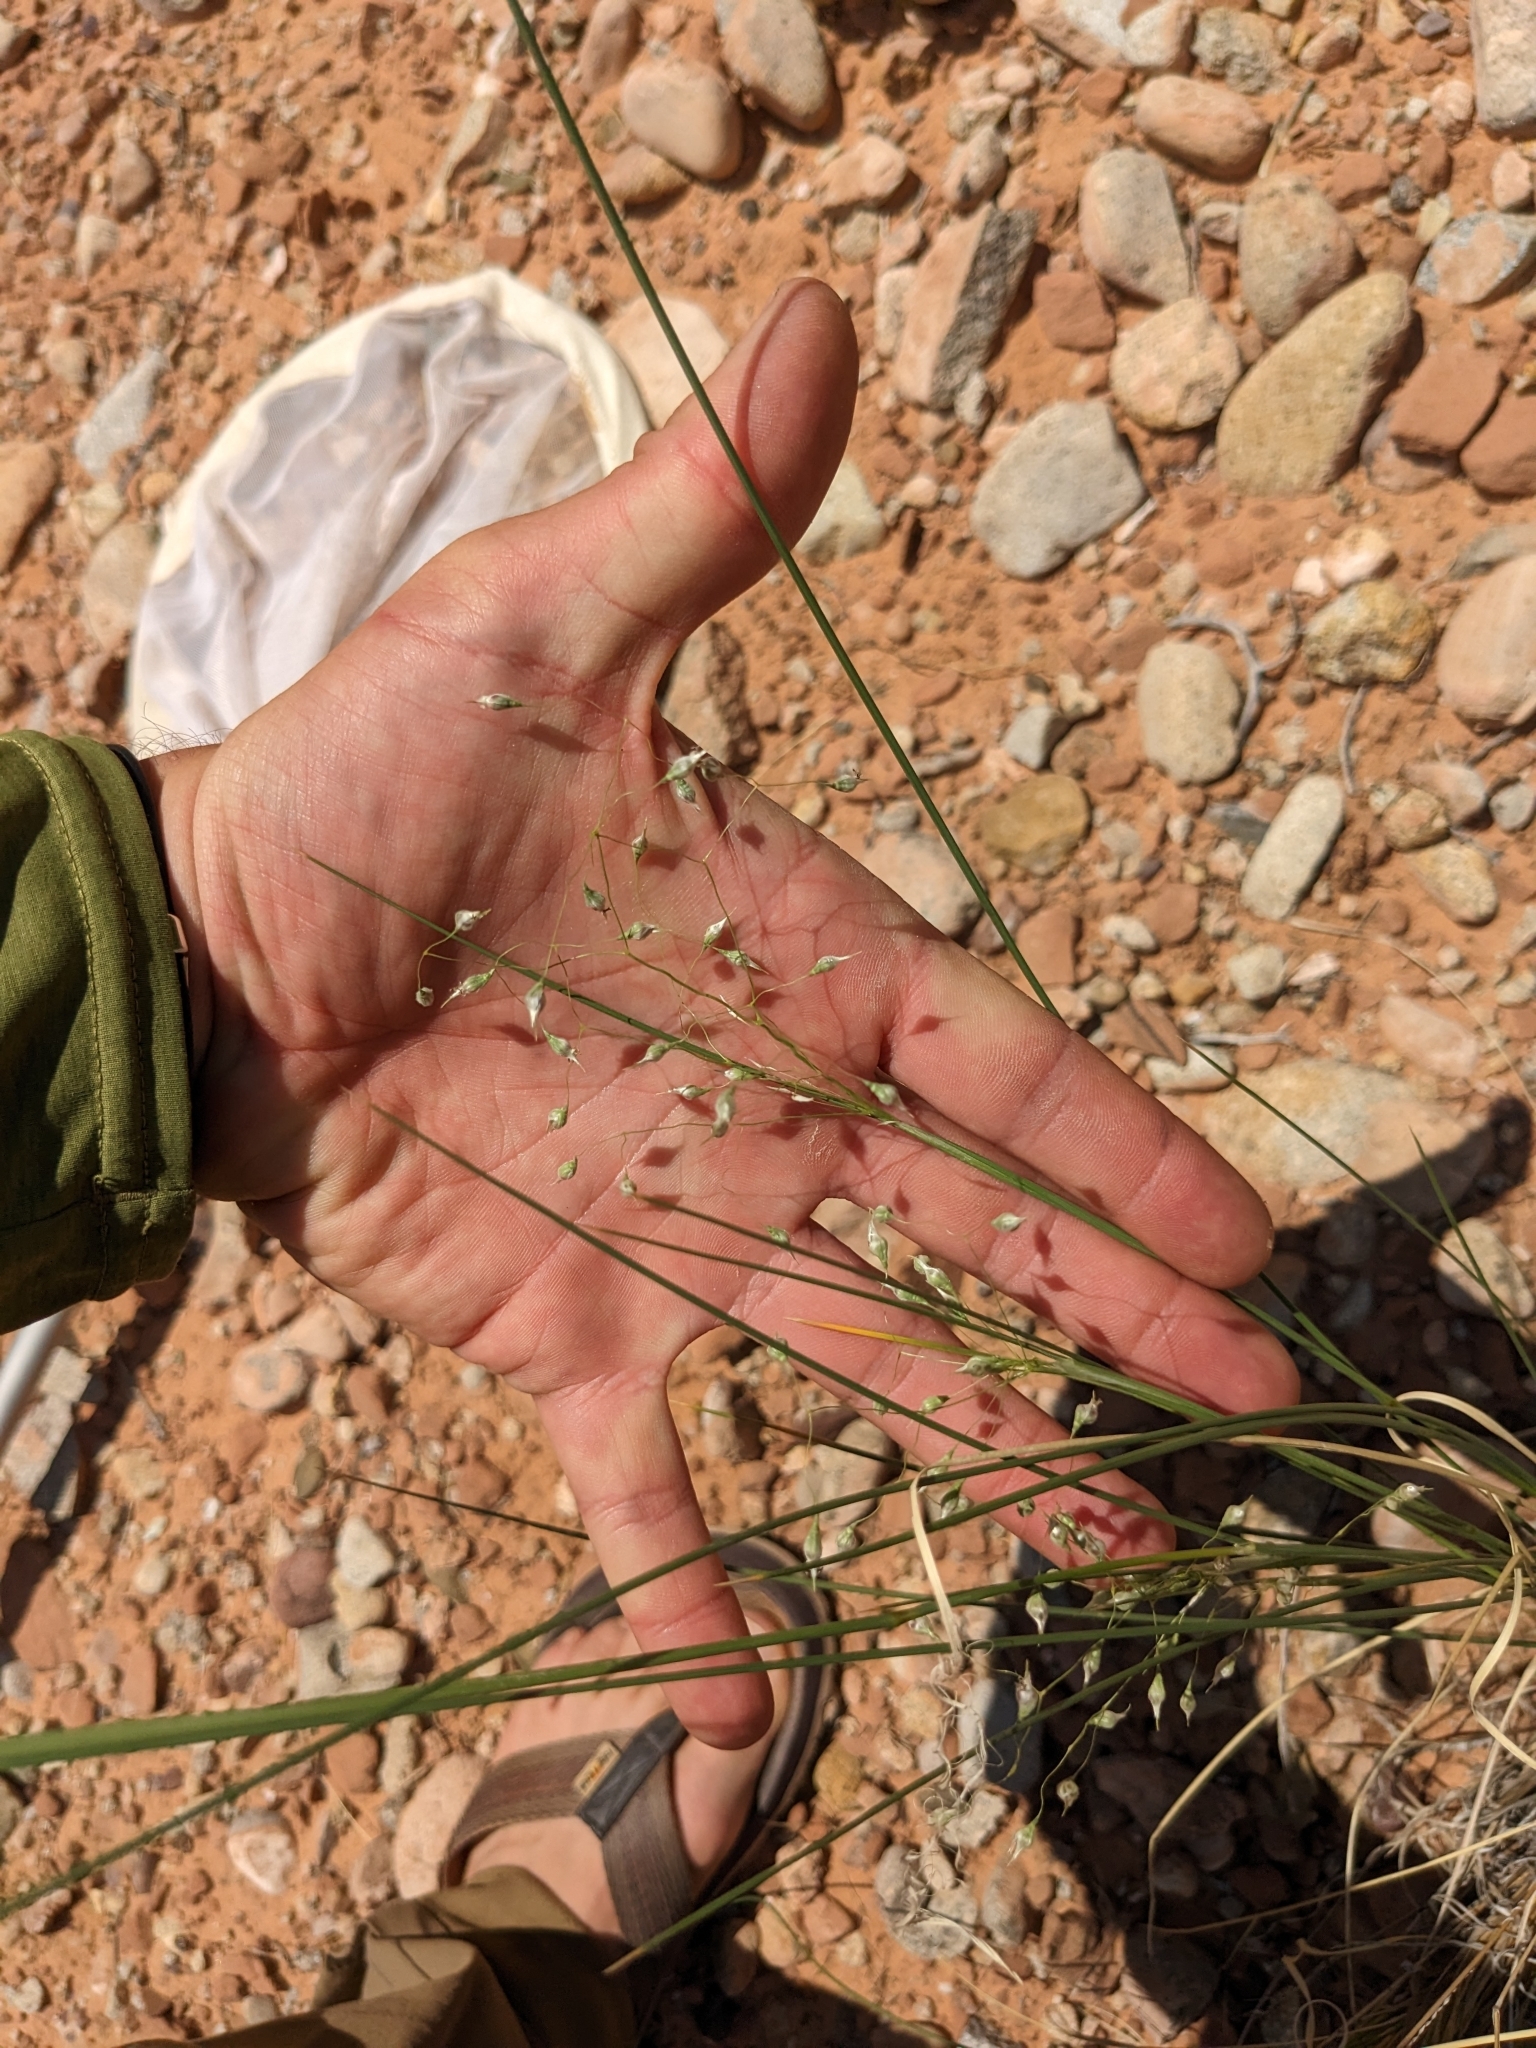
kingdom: Plantae
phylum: Tracheophyta
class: Liliopsida
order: Poales
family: Poaceae
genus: Eriocoma
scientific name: Eriocoma hymenoides
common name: Indian mountain ricegrass
